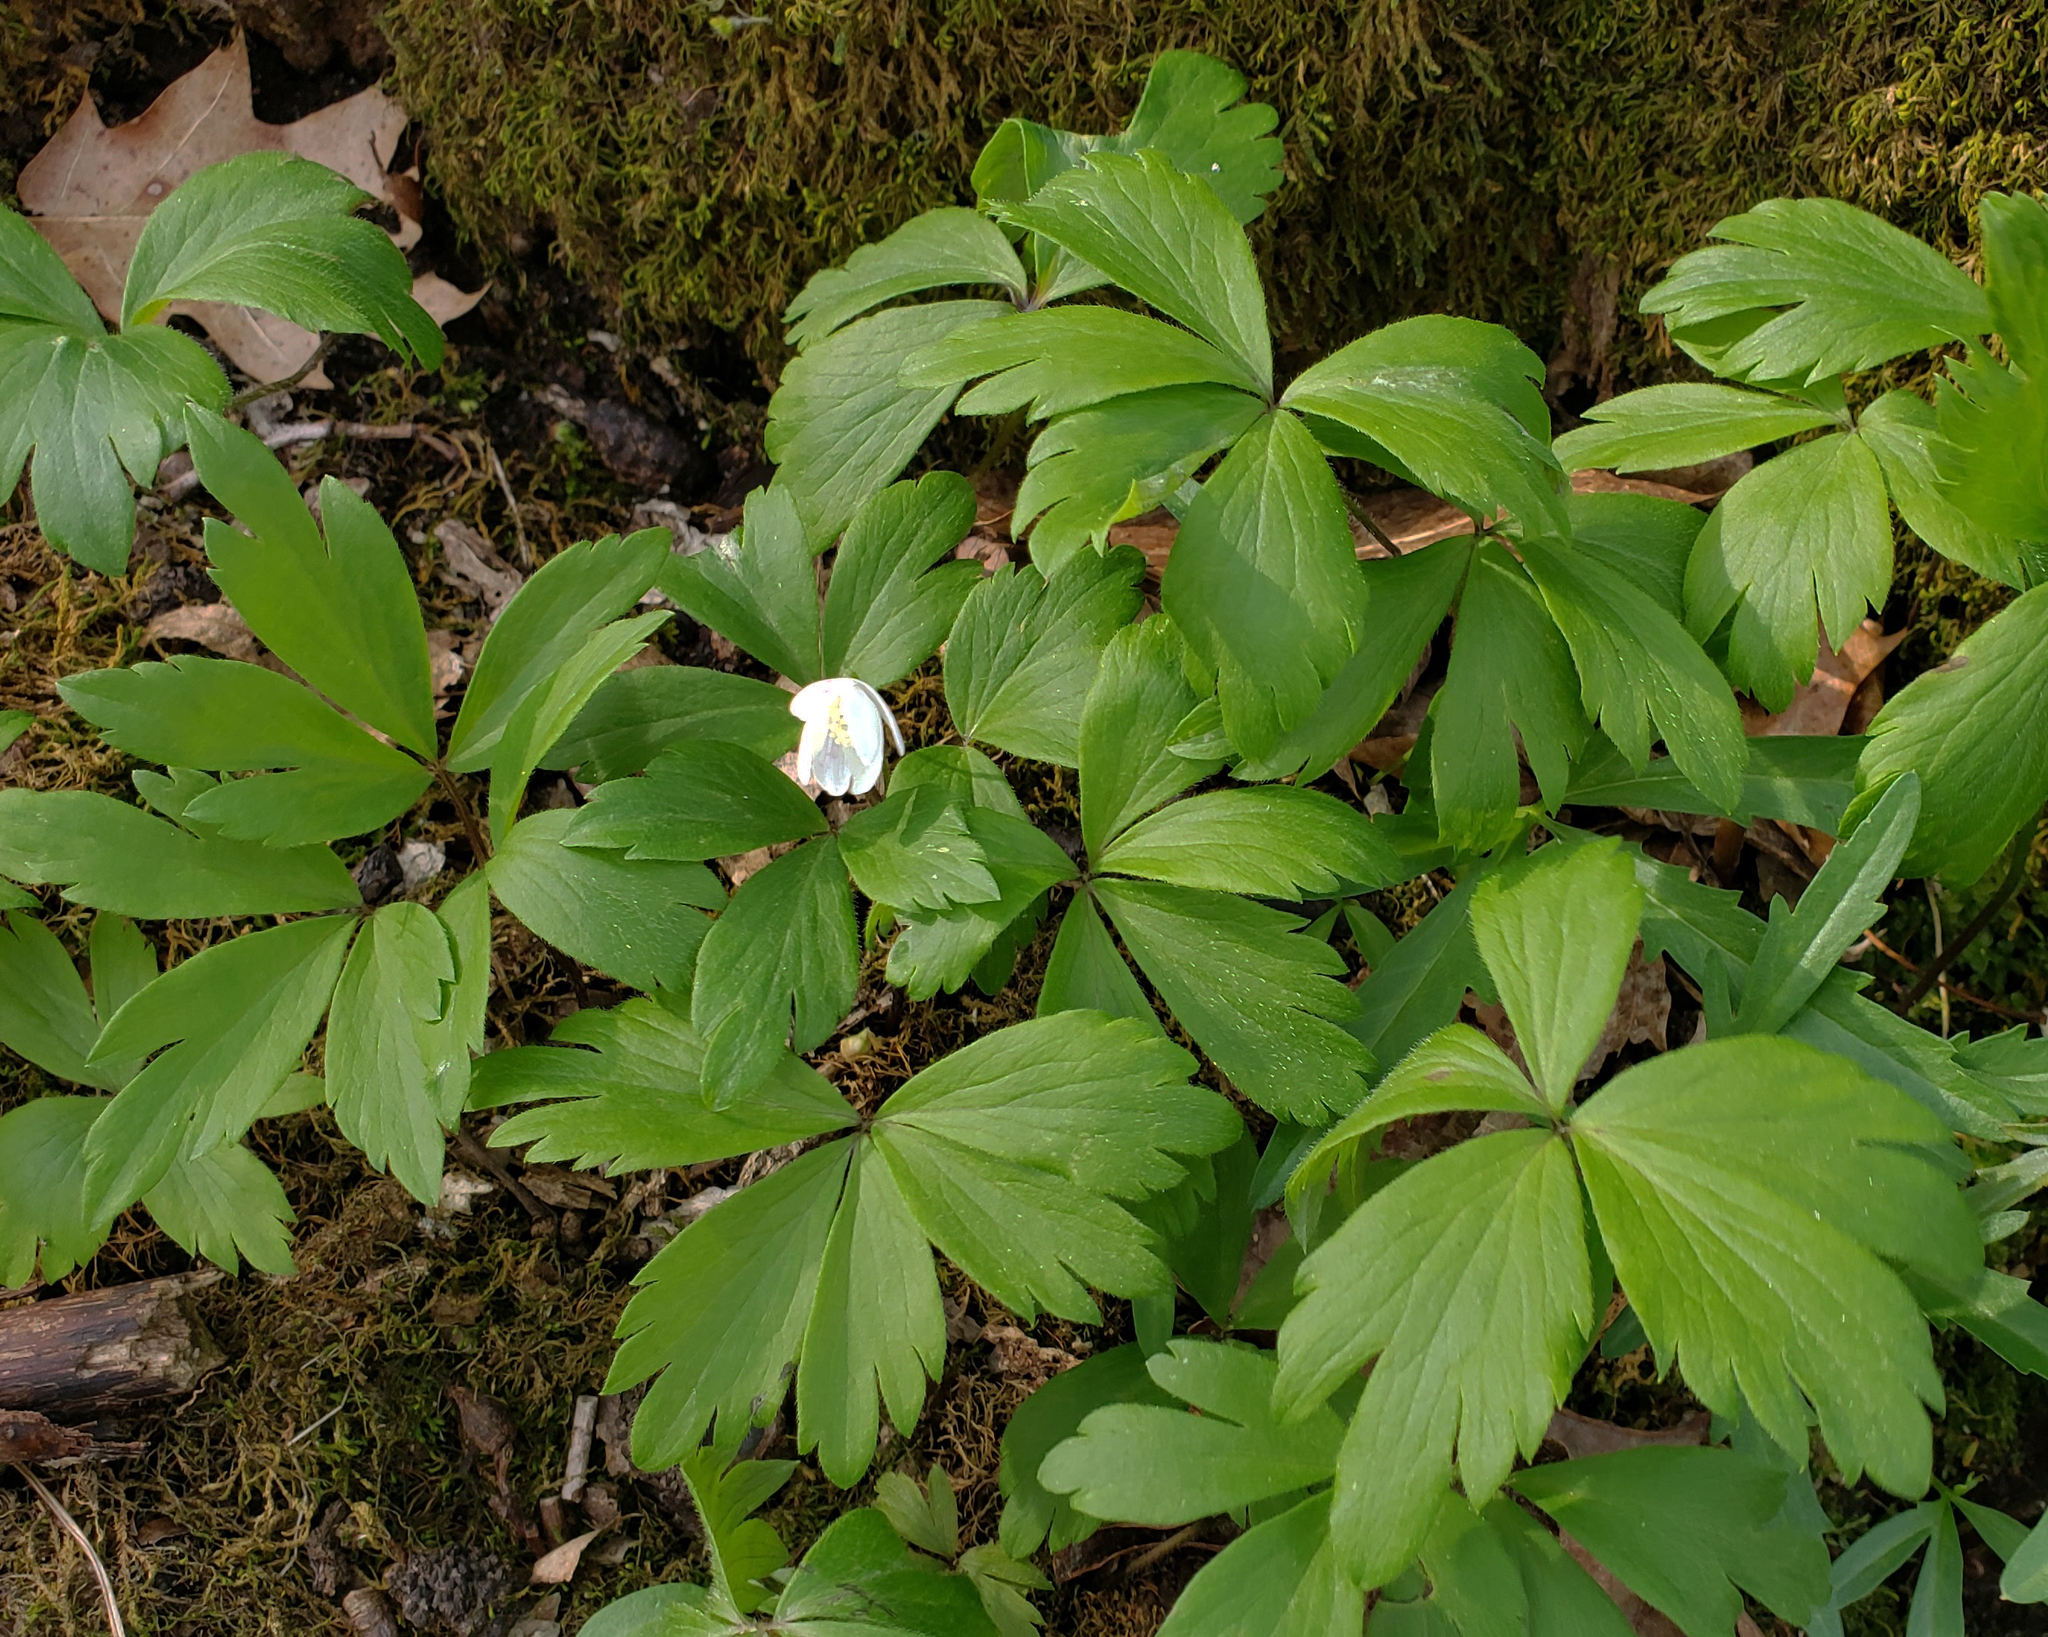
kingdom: Plantae
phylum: Tracheophyta
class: Magnoliopsida
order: Ranunculales
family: Ranunculaceae
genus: Anemone
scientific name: Anemone quinquefolia
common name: Wood anemone
